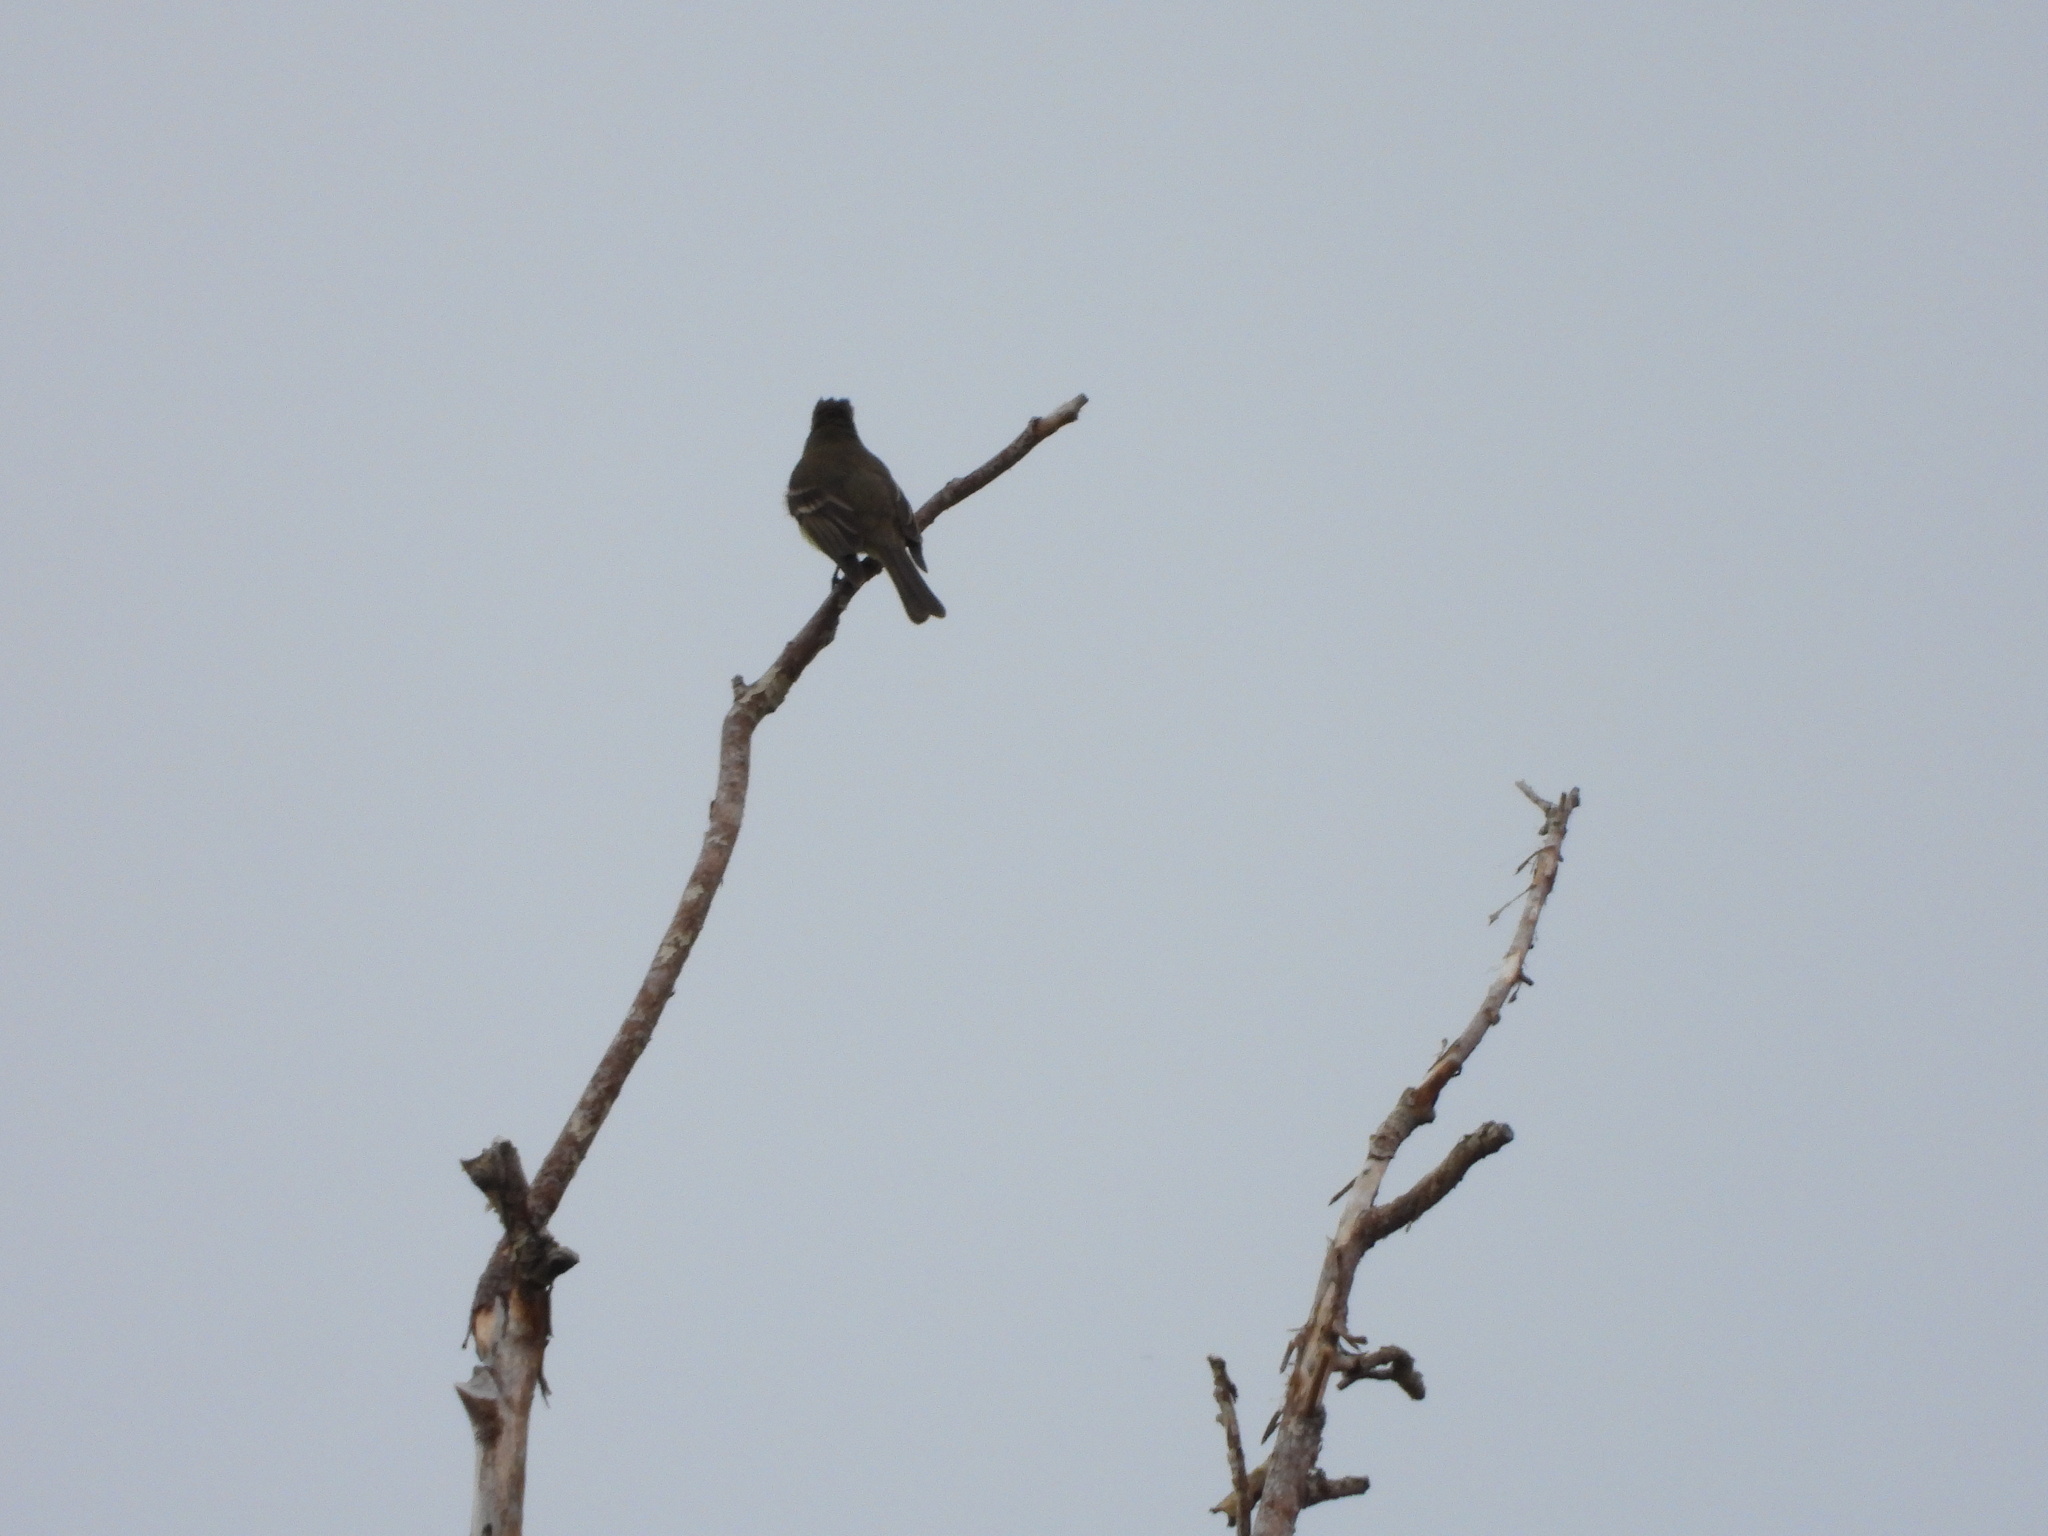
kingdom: Animalia
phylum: Chordata
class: Aves
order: Passeriformes
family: Tyrannidae
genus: Contopus
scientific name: Contopus sordidulus
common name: Western wood-pewee
